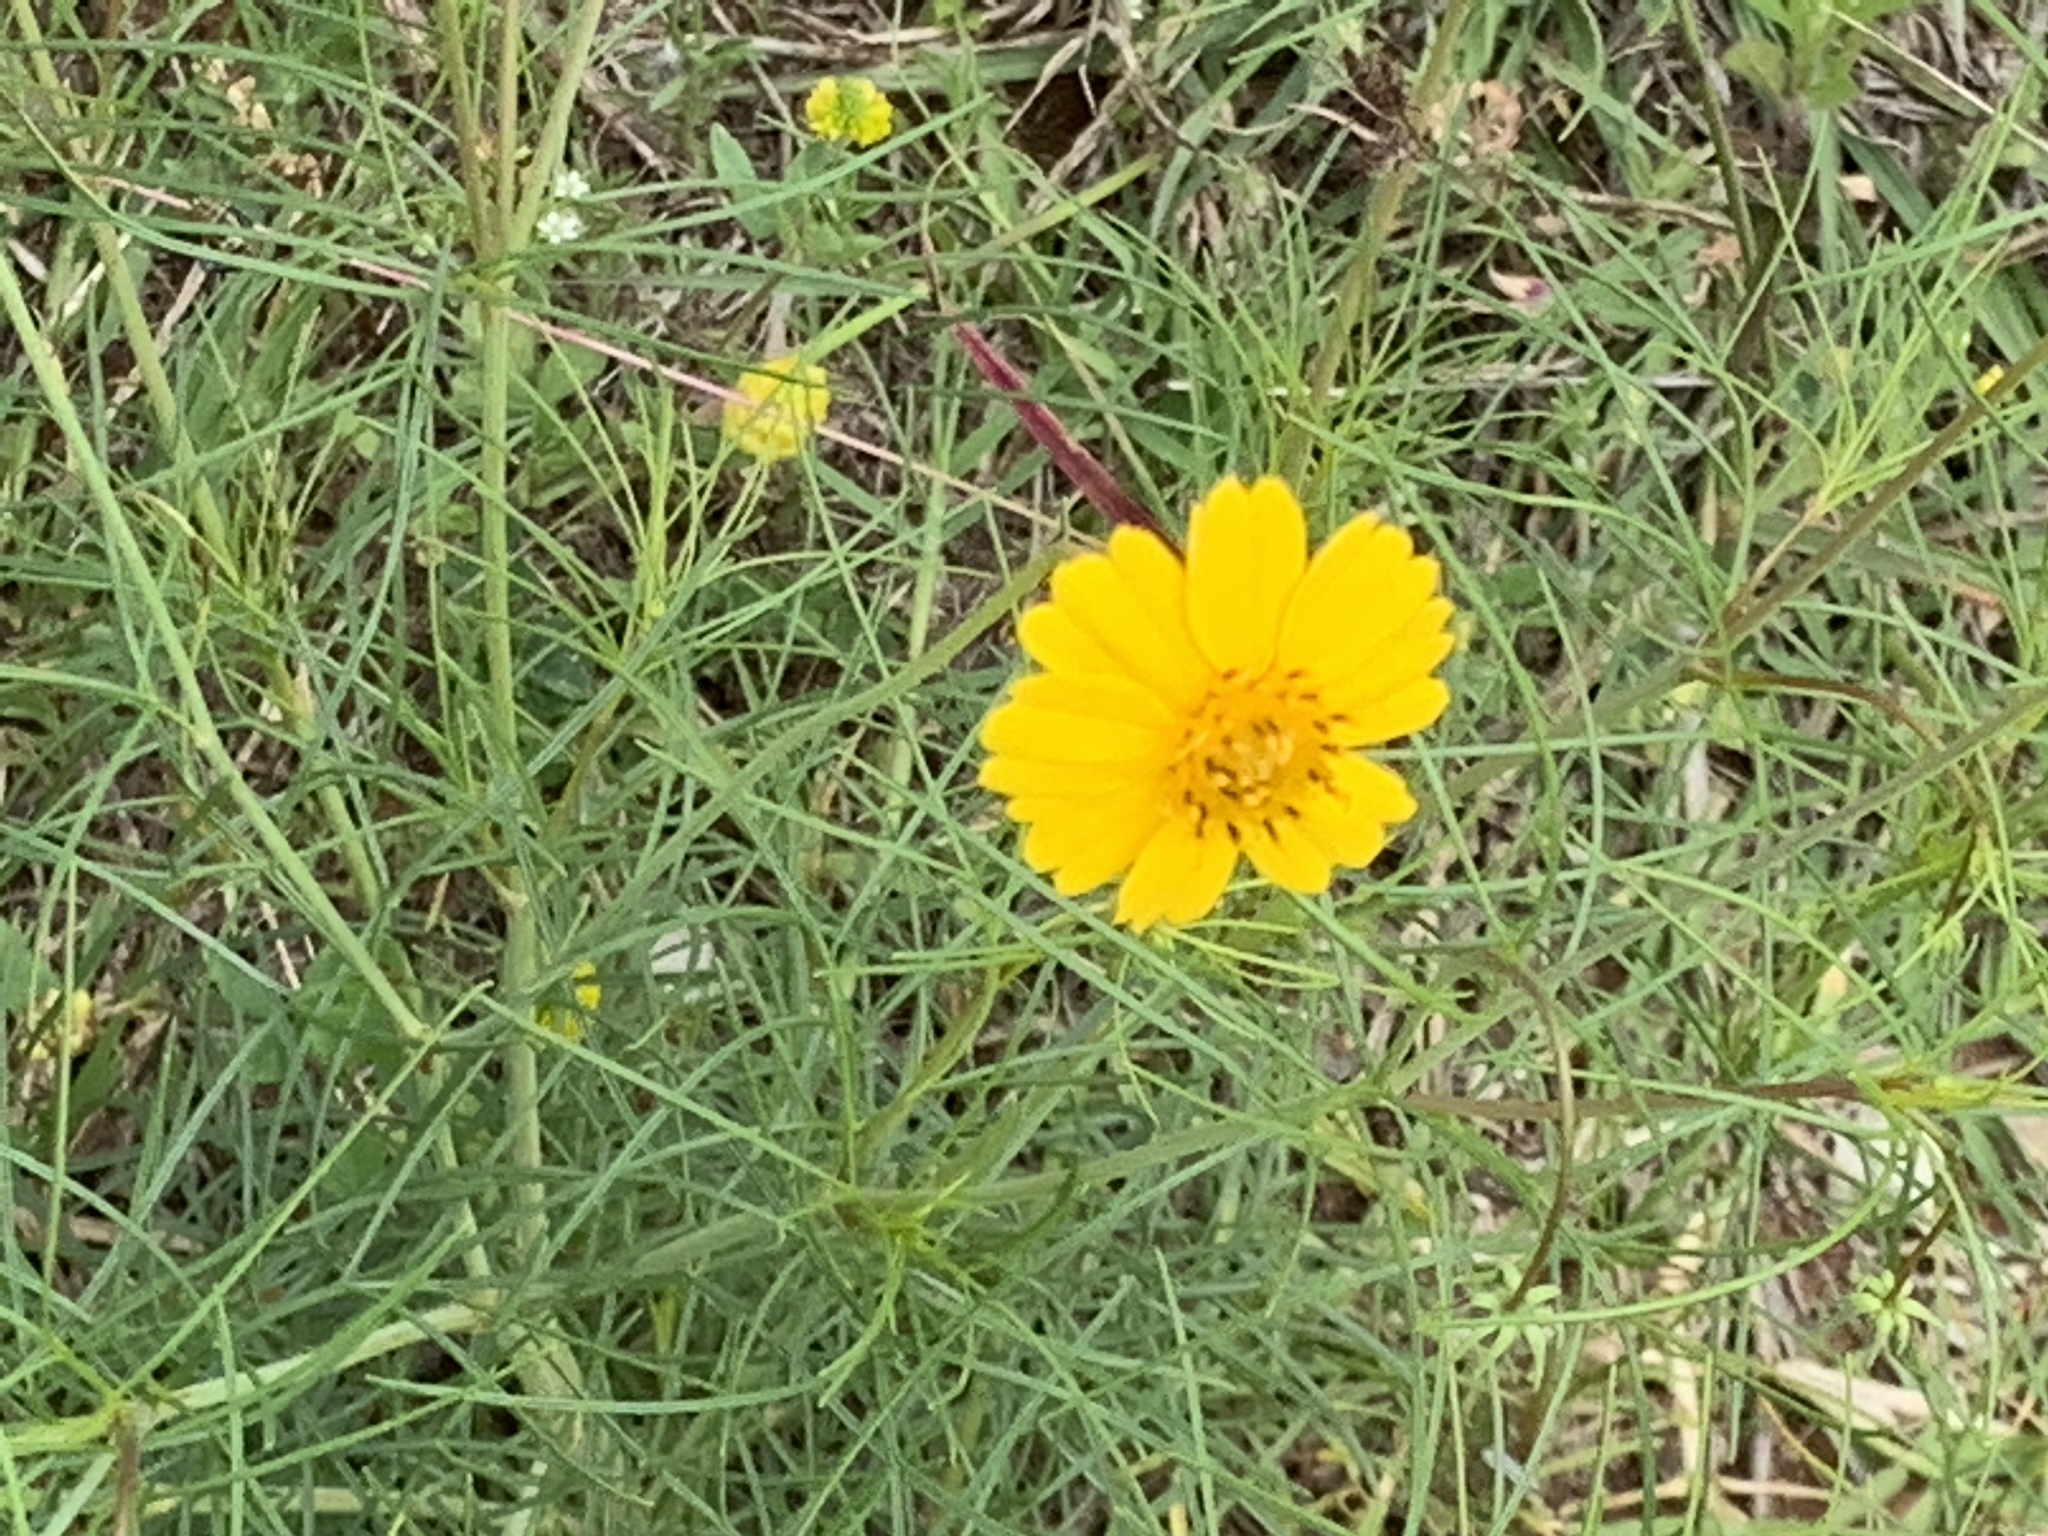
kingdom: Plantae
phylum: Tracheophyta
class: Magnoliopsida
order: Asterales
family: Asteraceae
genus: Thelesperma
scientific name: Thelesperma filifolium
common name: Stiff greenthread
